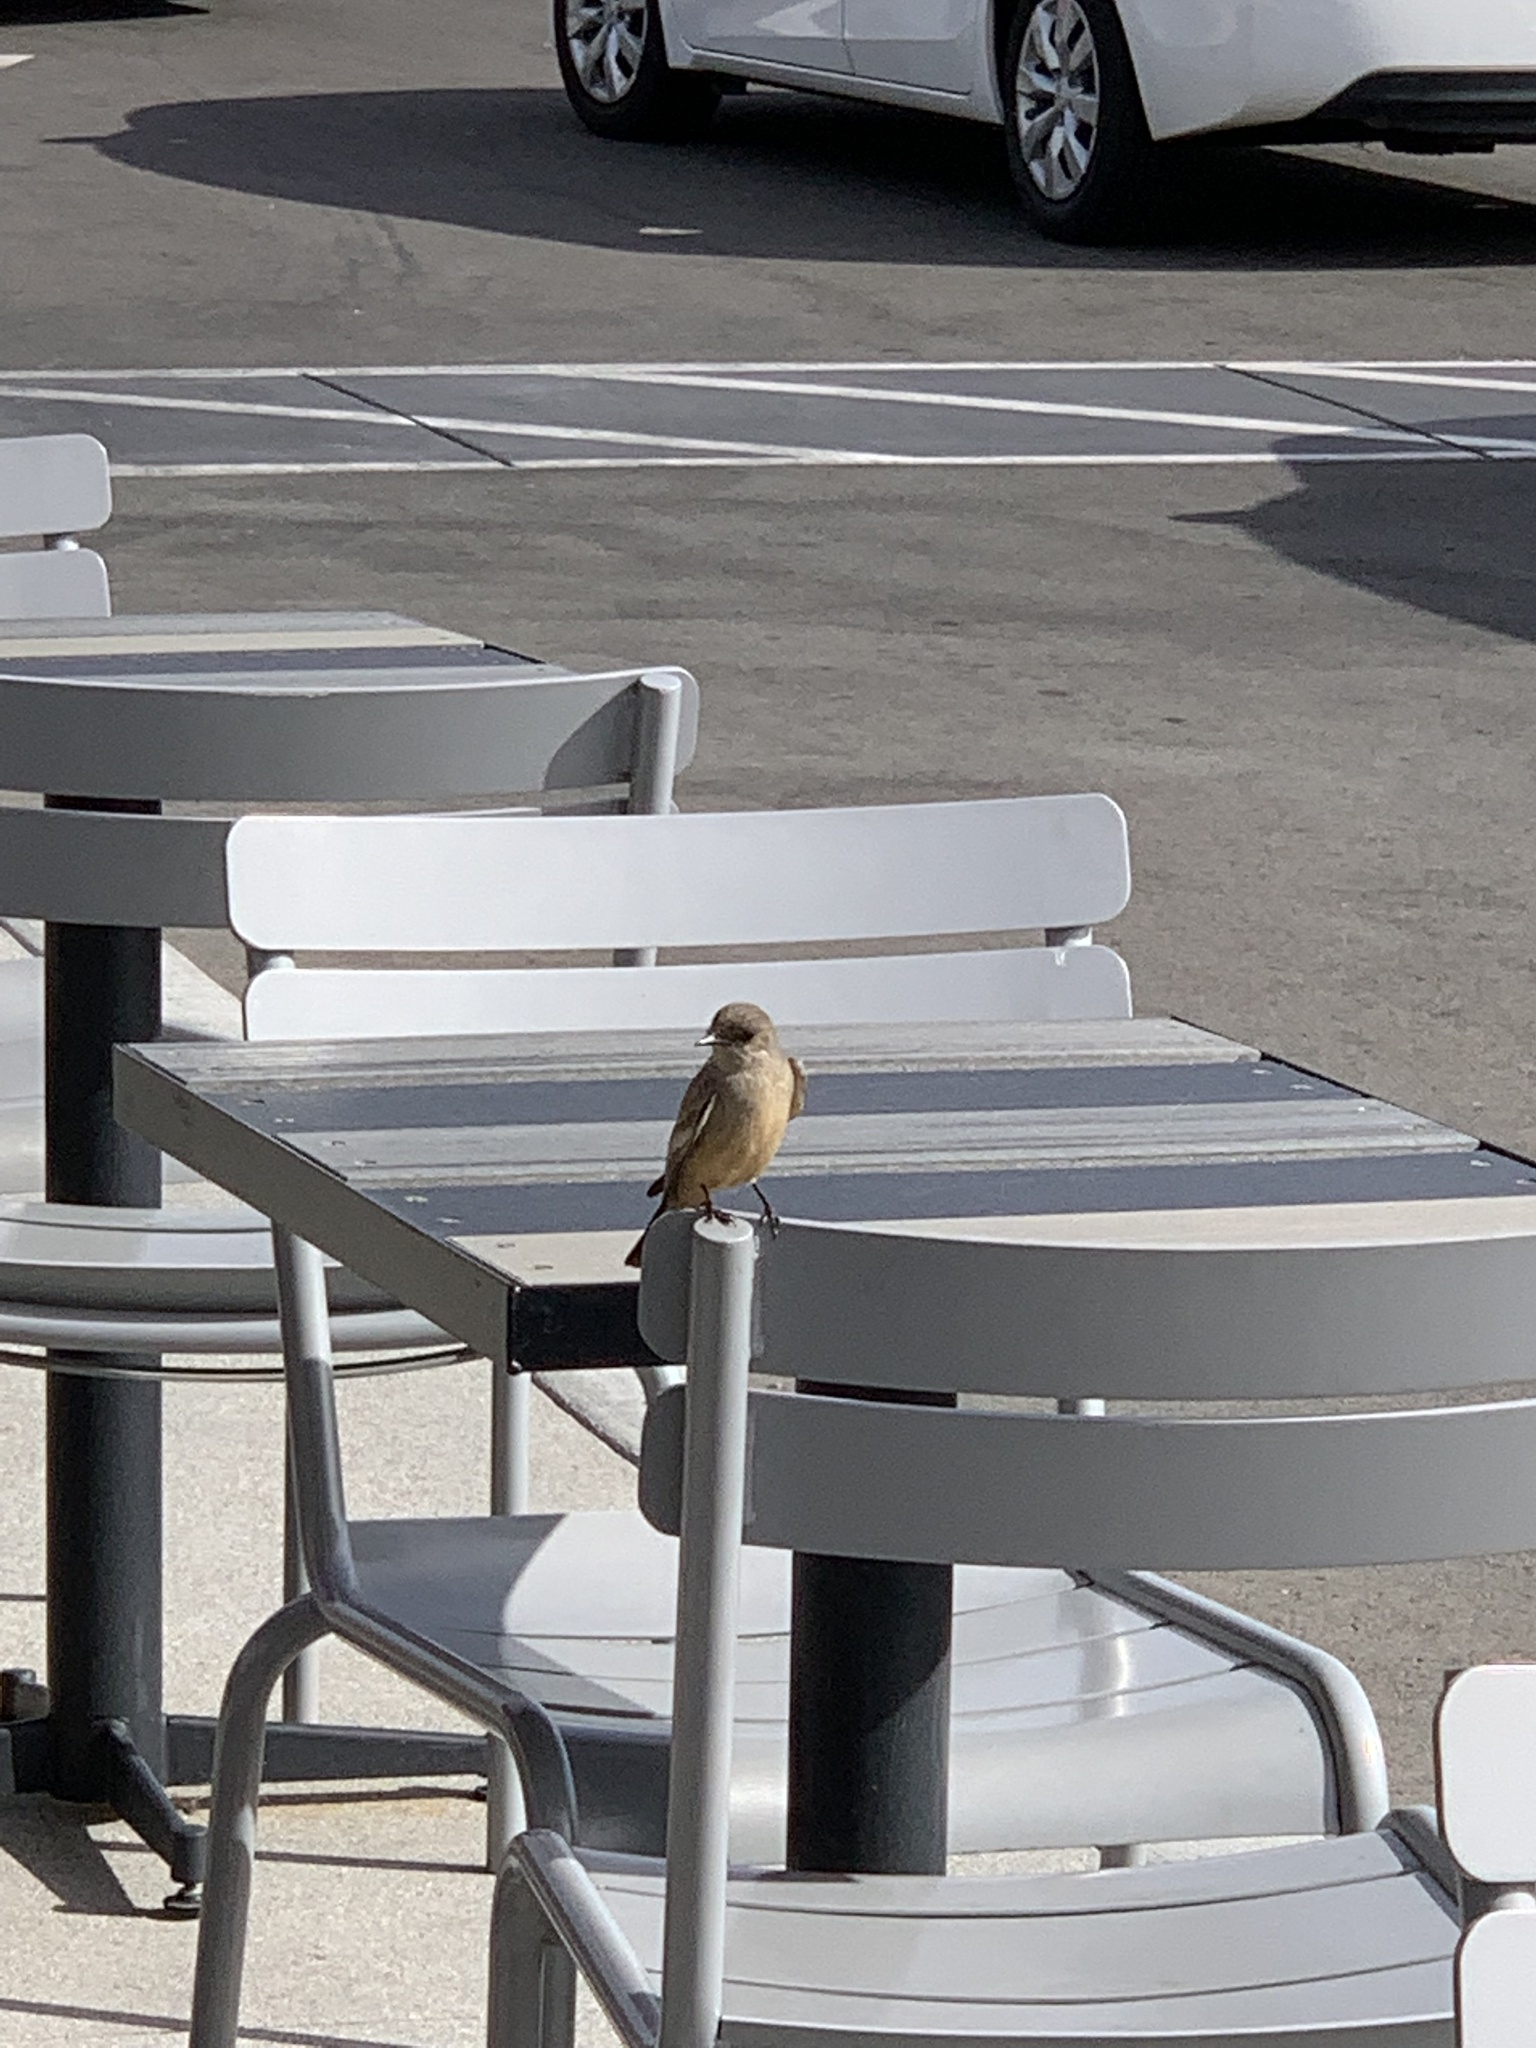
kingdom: Animalia
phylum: Chordata
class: Aves
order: Passeriformes
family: Tyrannidae
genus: Sayornis
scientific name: Sayornis saya
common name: Say's phoebe
